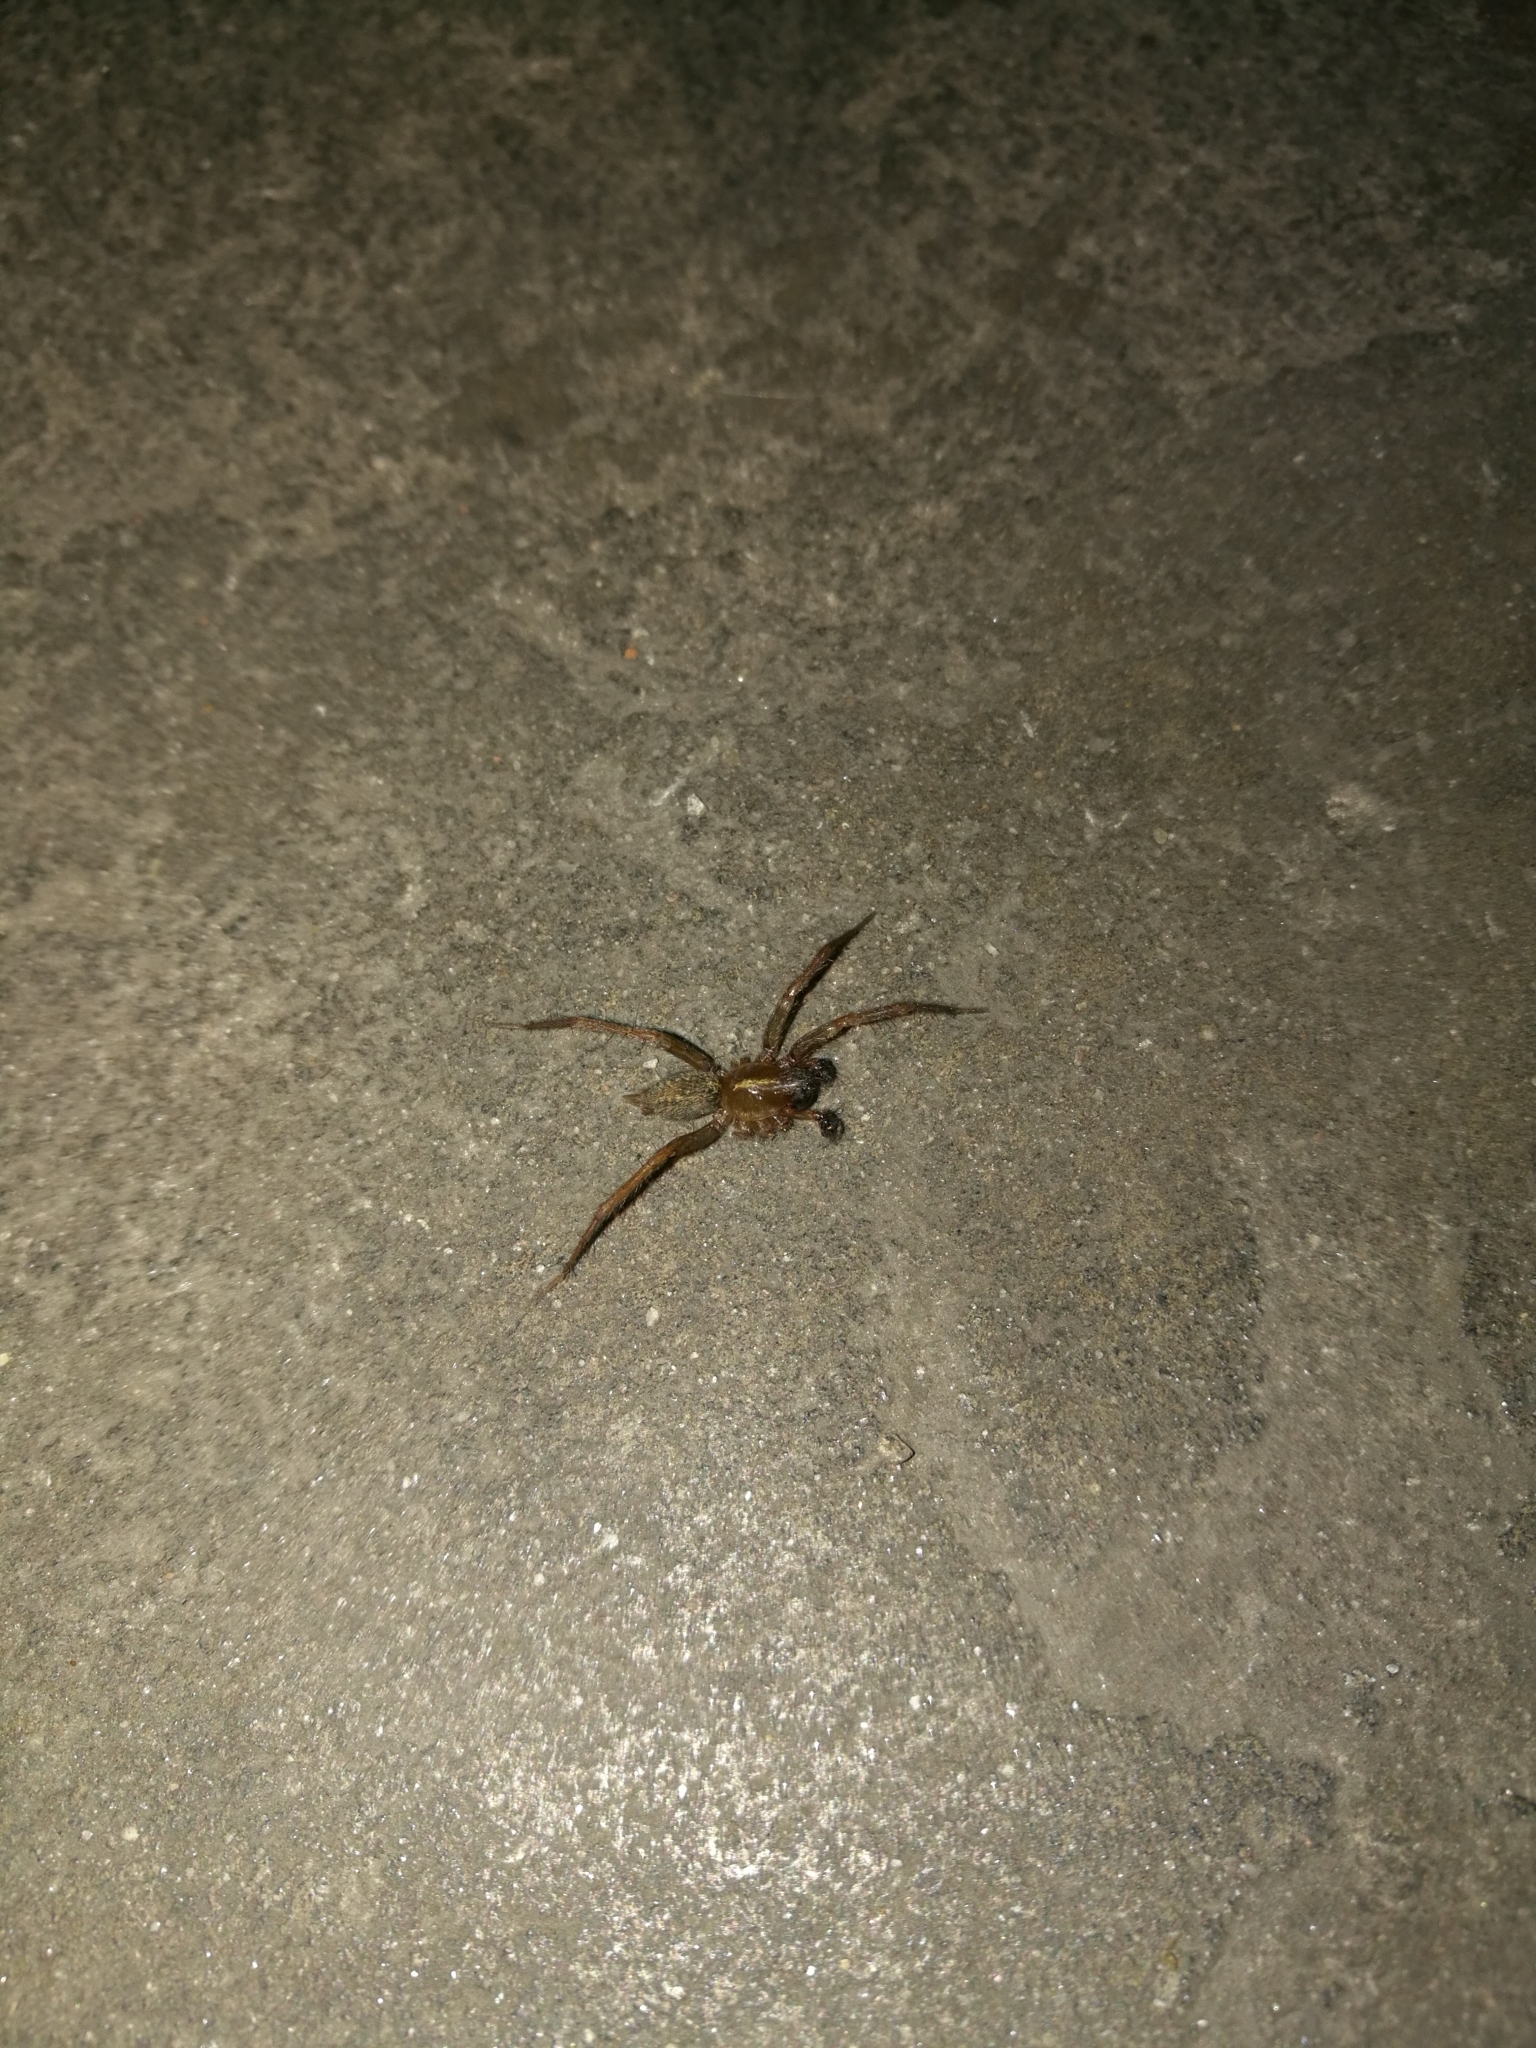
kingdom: Animalia
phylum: Arthropoda
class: Arachnida
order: Araneae
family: Agelenidae
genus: Lycosoides
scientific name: Lycosoides coarctata
